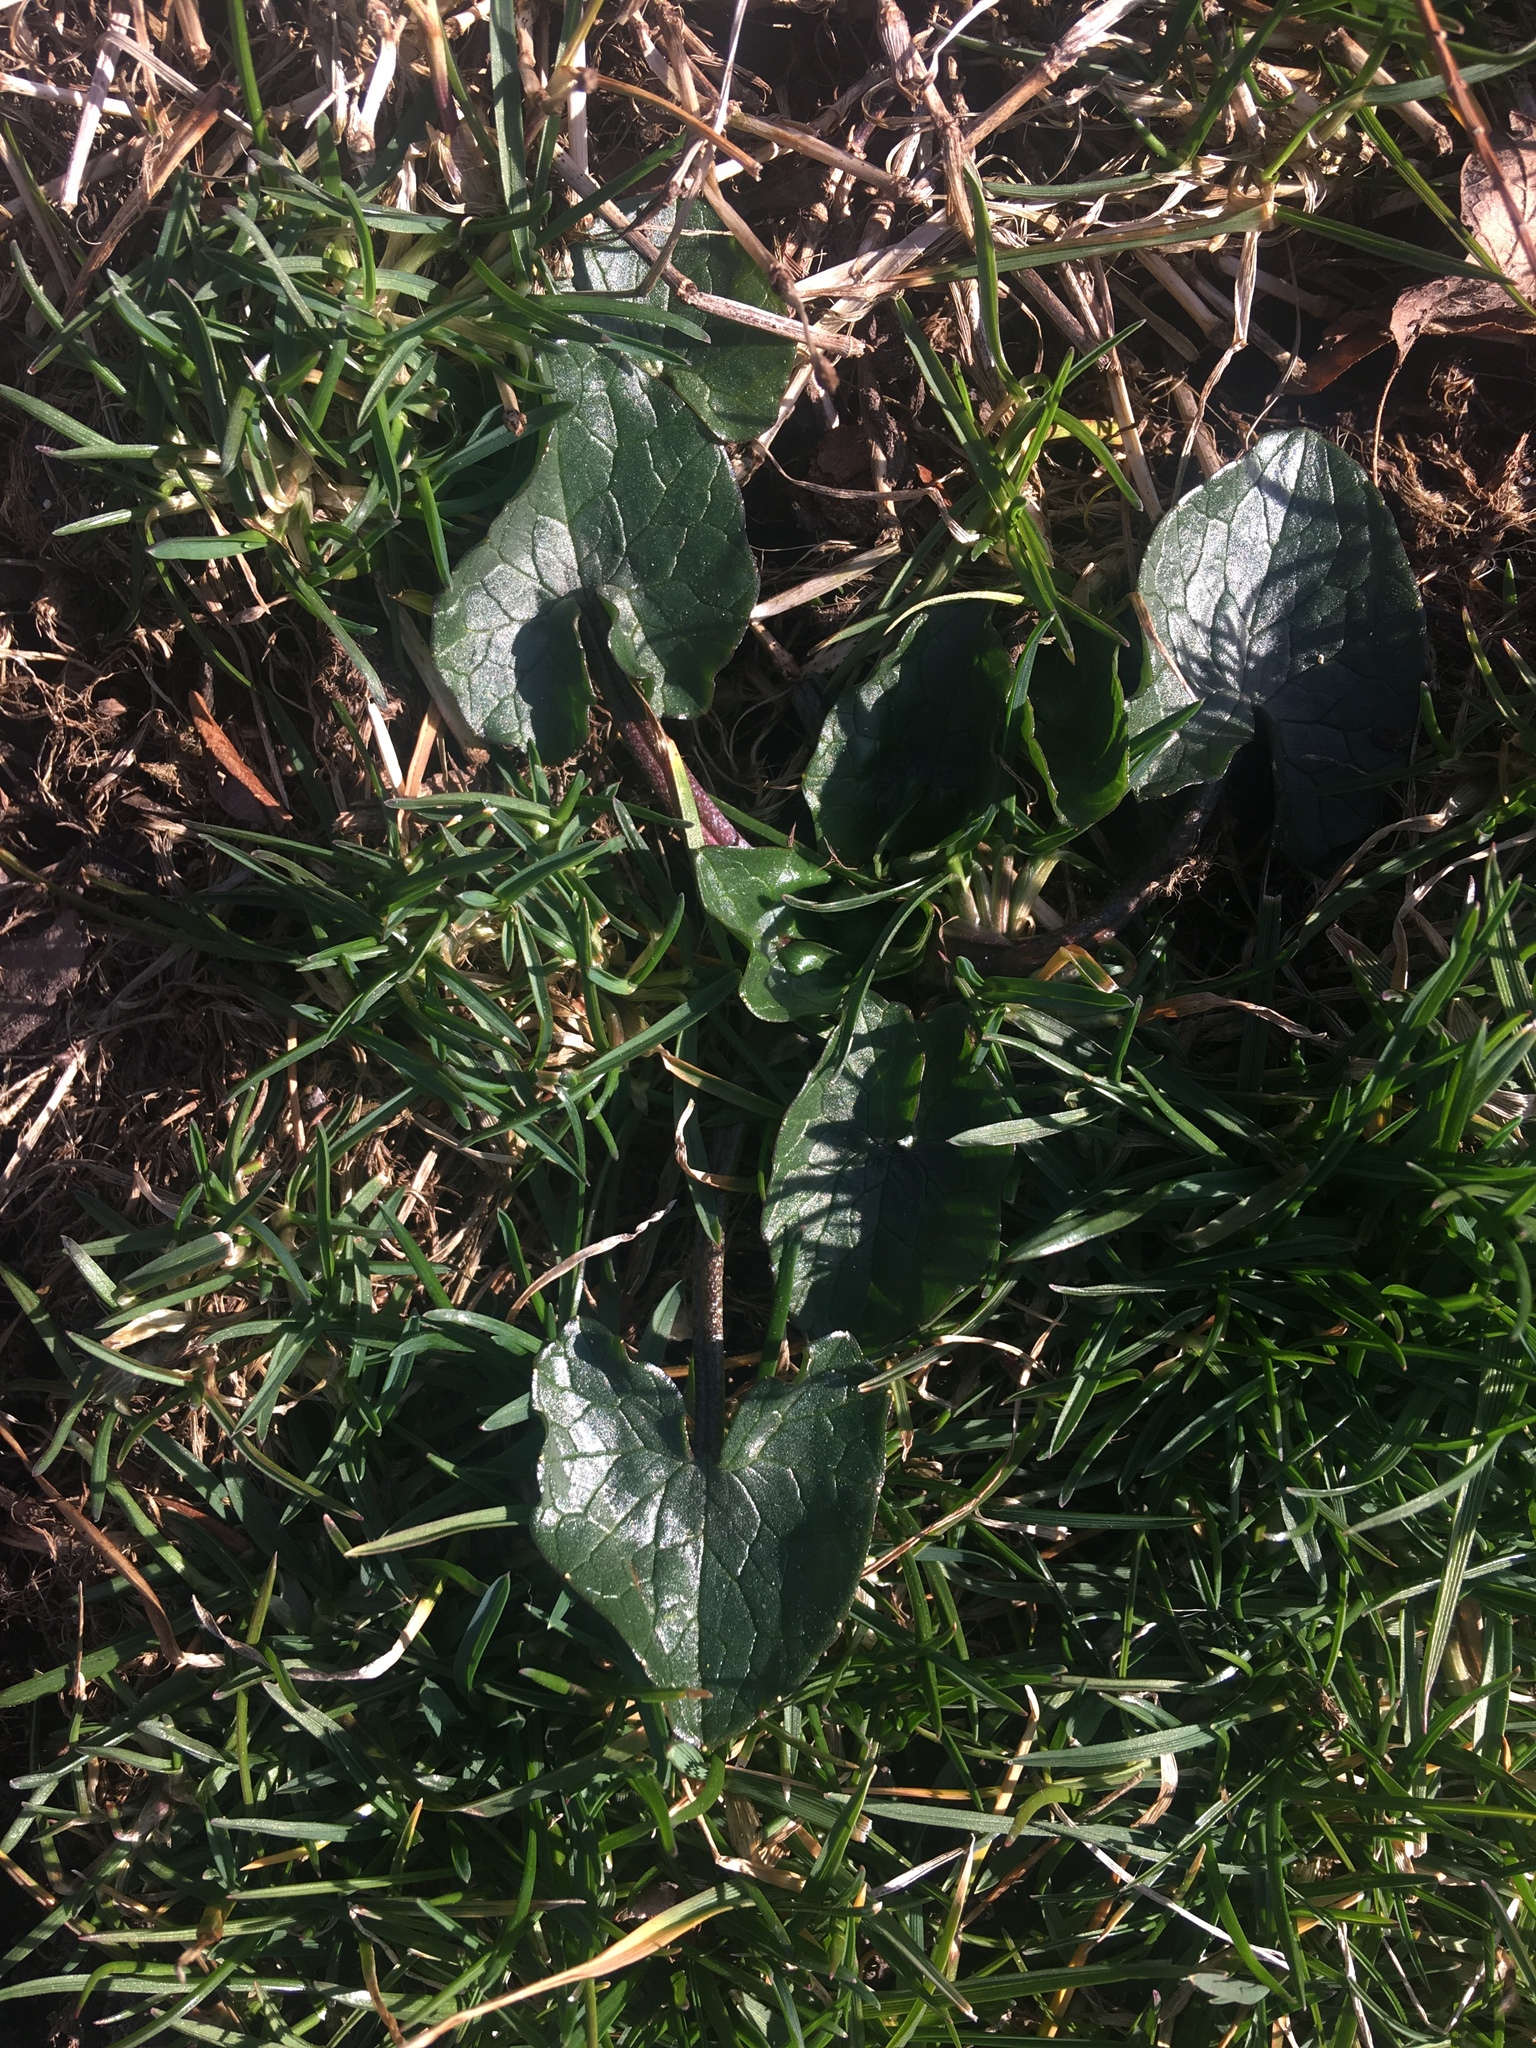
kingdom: Plantae
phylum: Tracheophyta
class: Magnoliopsida
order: Ranunculales
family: Ranunculaceae
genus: Ficaria
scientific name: Ficaria verna
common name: Lesser celandine
